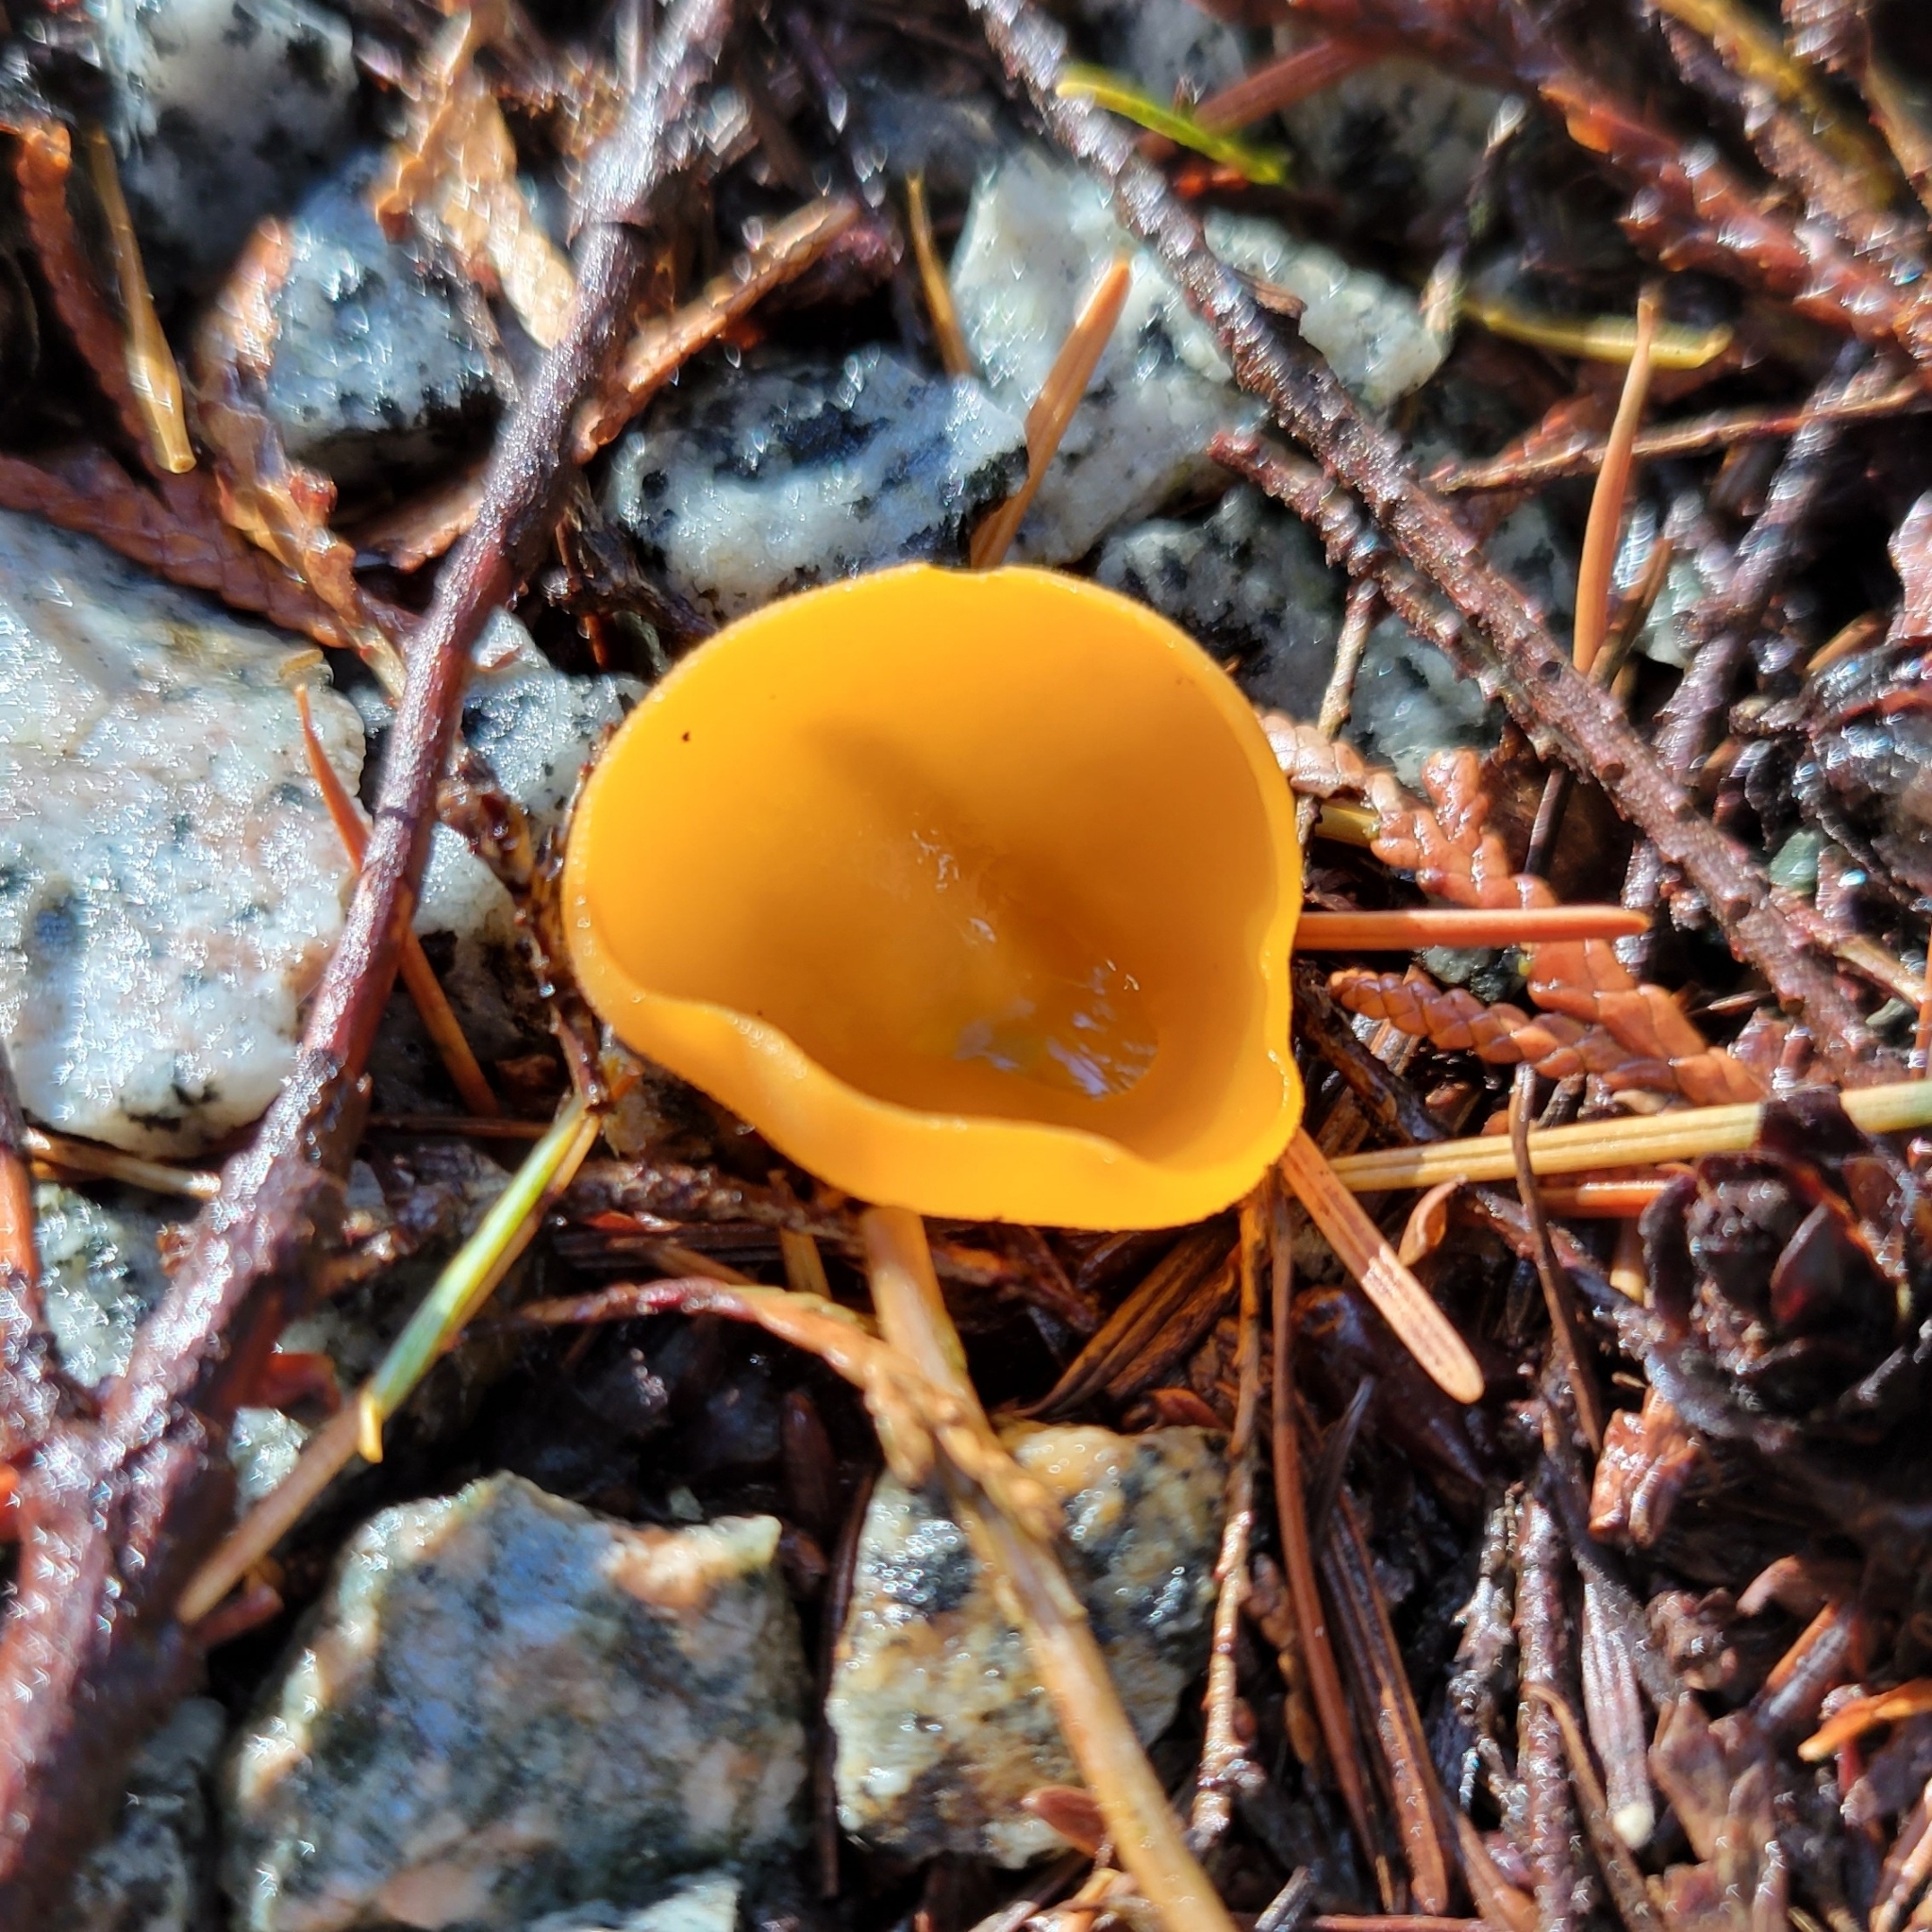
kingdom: Fungi
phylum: Ascomycota
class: Pezizomycetes
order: Pezizales
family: Pyronemataceae
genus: Aleuria
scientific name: Aleuria aurantia
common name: Orange peel fungus
